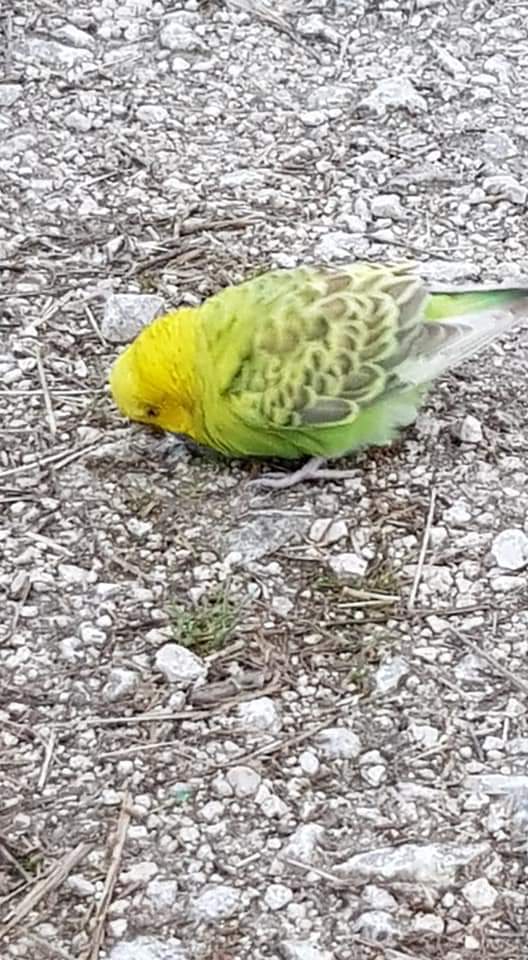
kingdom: Animalia
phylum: Chordata
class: Aves
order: Psittaciformes
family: Psittacidae
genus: Melopsittacus
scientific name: Melopsittacus undulatus
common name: Budgerigar
